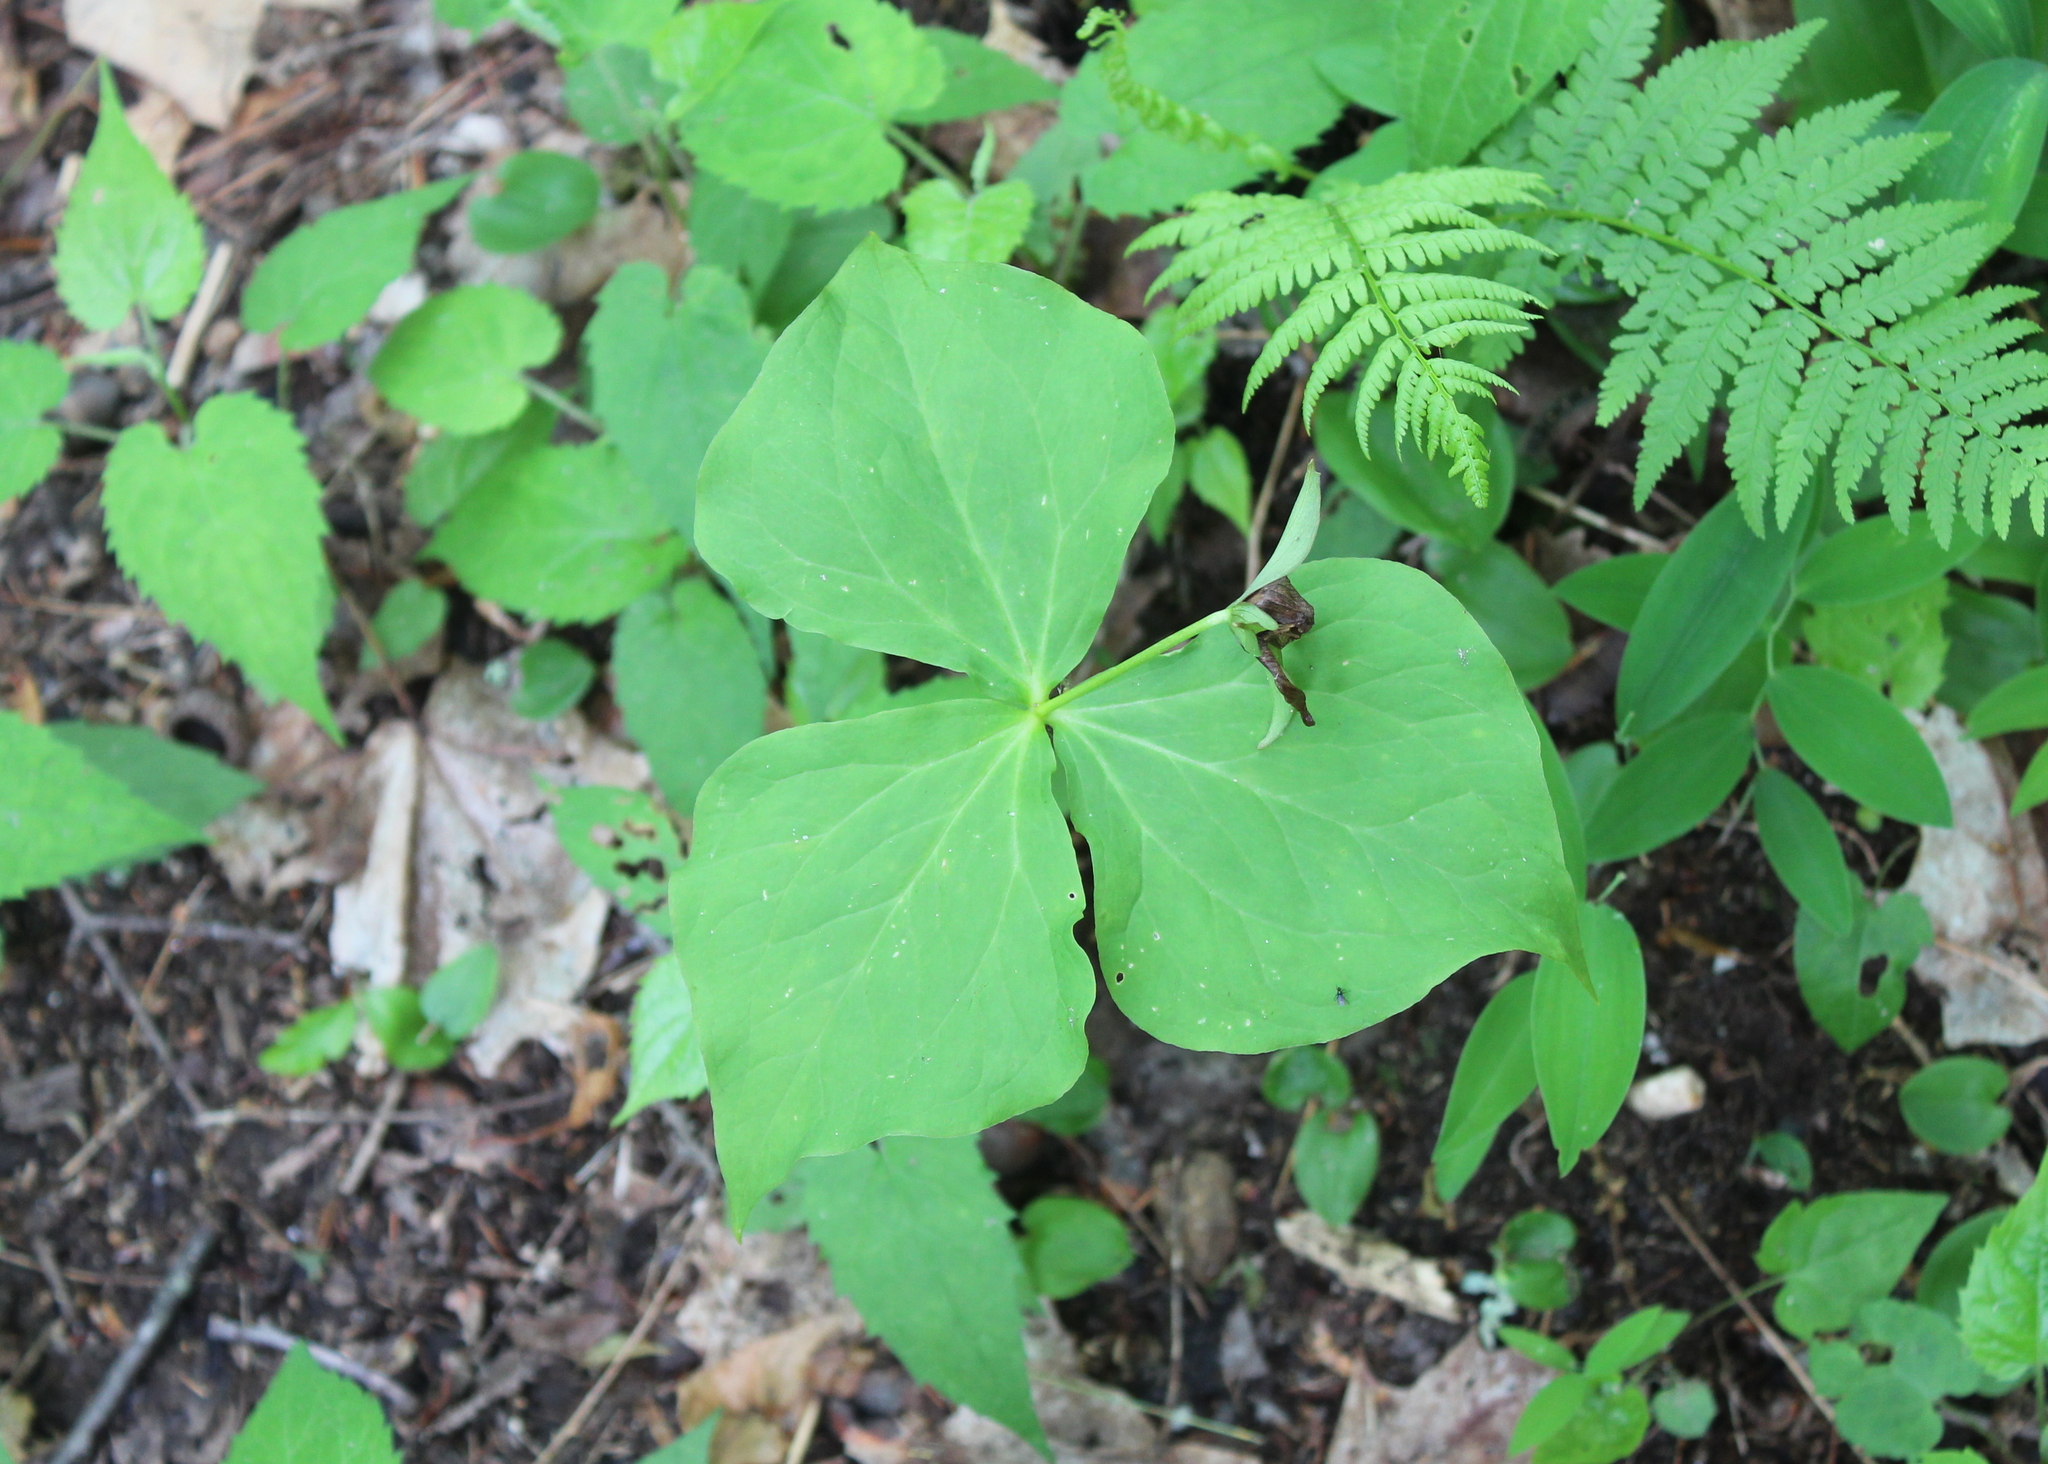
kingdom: Plantae
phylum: Tracheophyta
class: Liliopsida
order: Liliales
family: Melanthiaceae
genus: Trillium
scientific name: Trillium erectum
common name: Purple trillium
